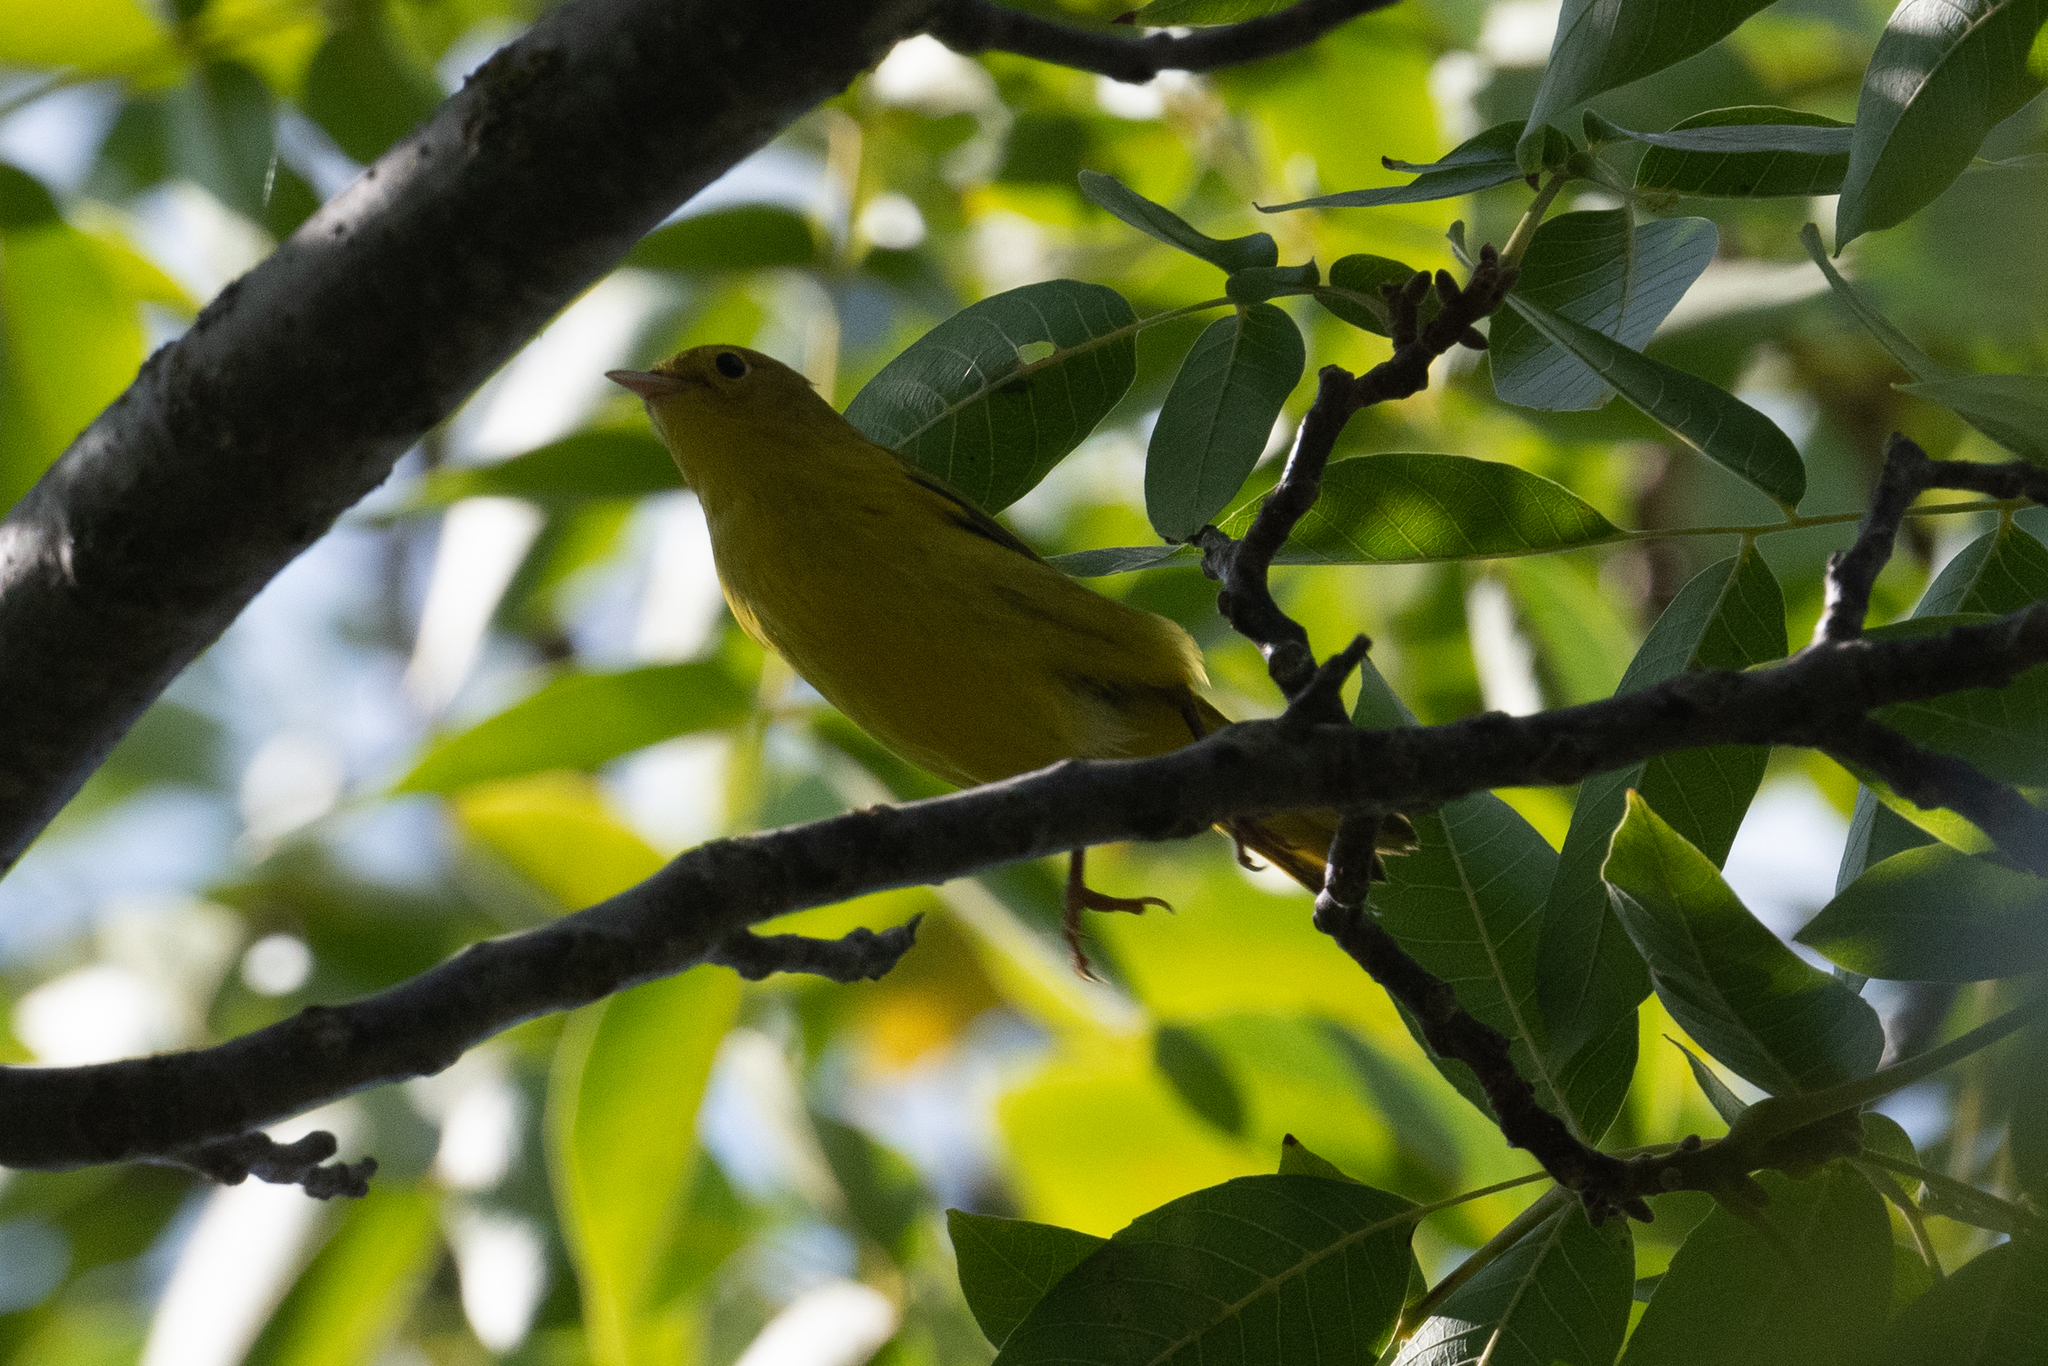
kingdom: Animalia
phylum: Chordata
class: Aves
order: Passeriformes
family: Parulidae
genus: Setophaga
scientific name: Setophaga petechia
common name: Yellow warbler
